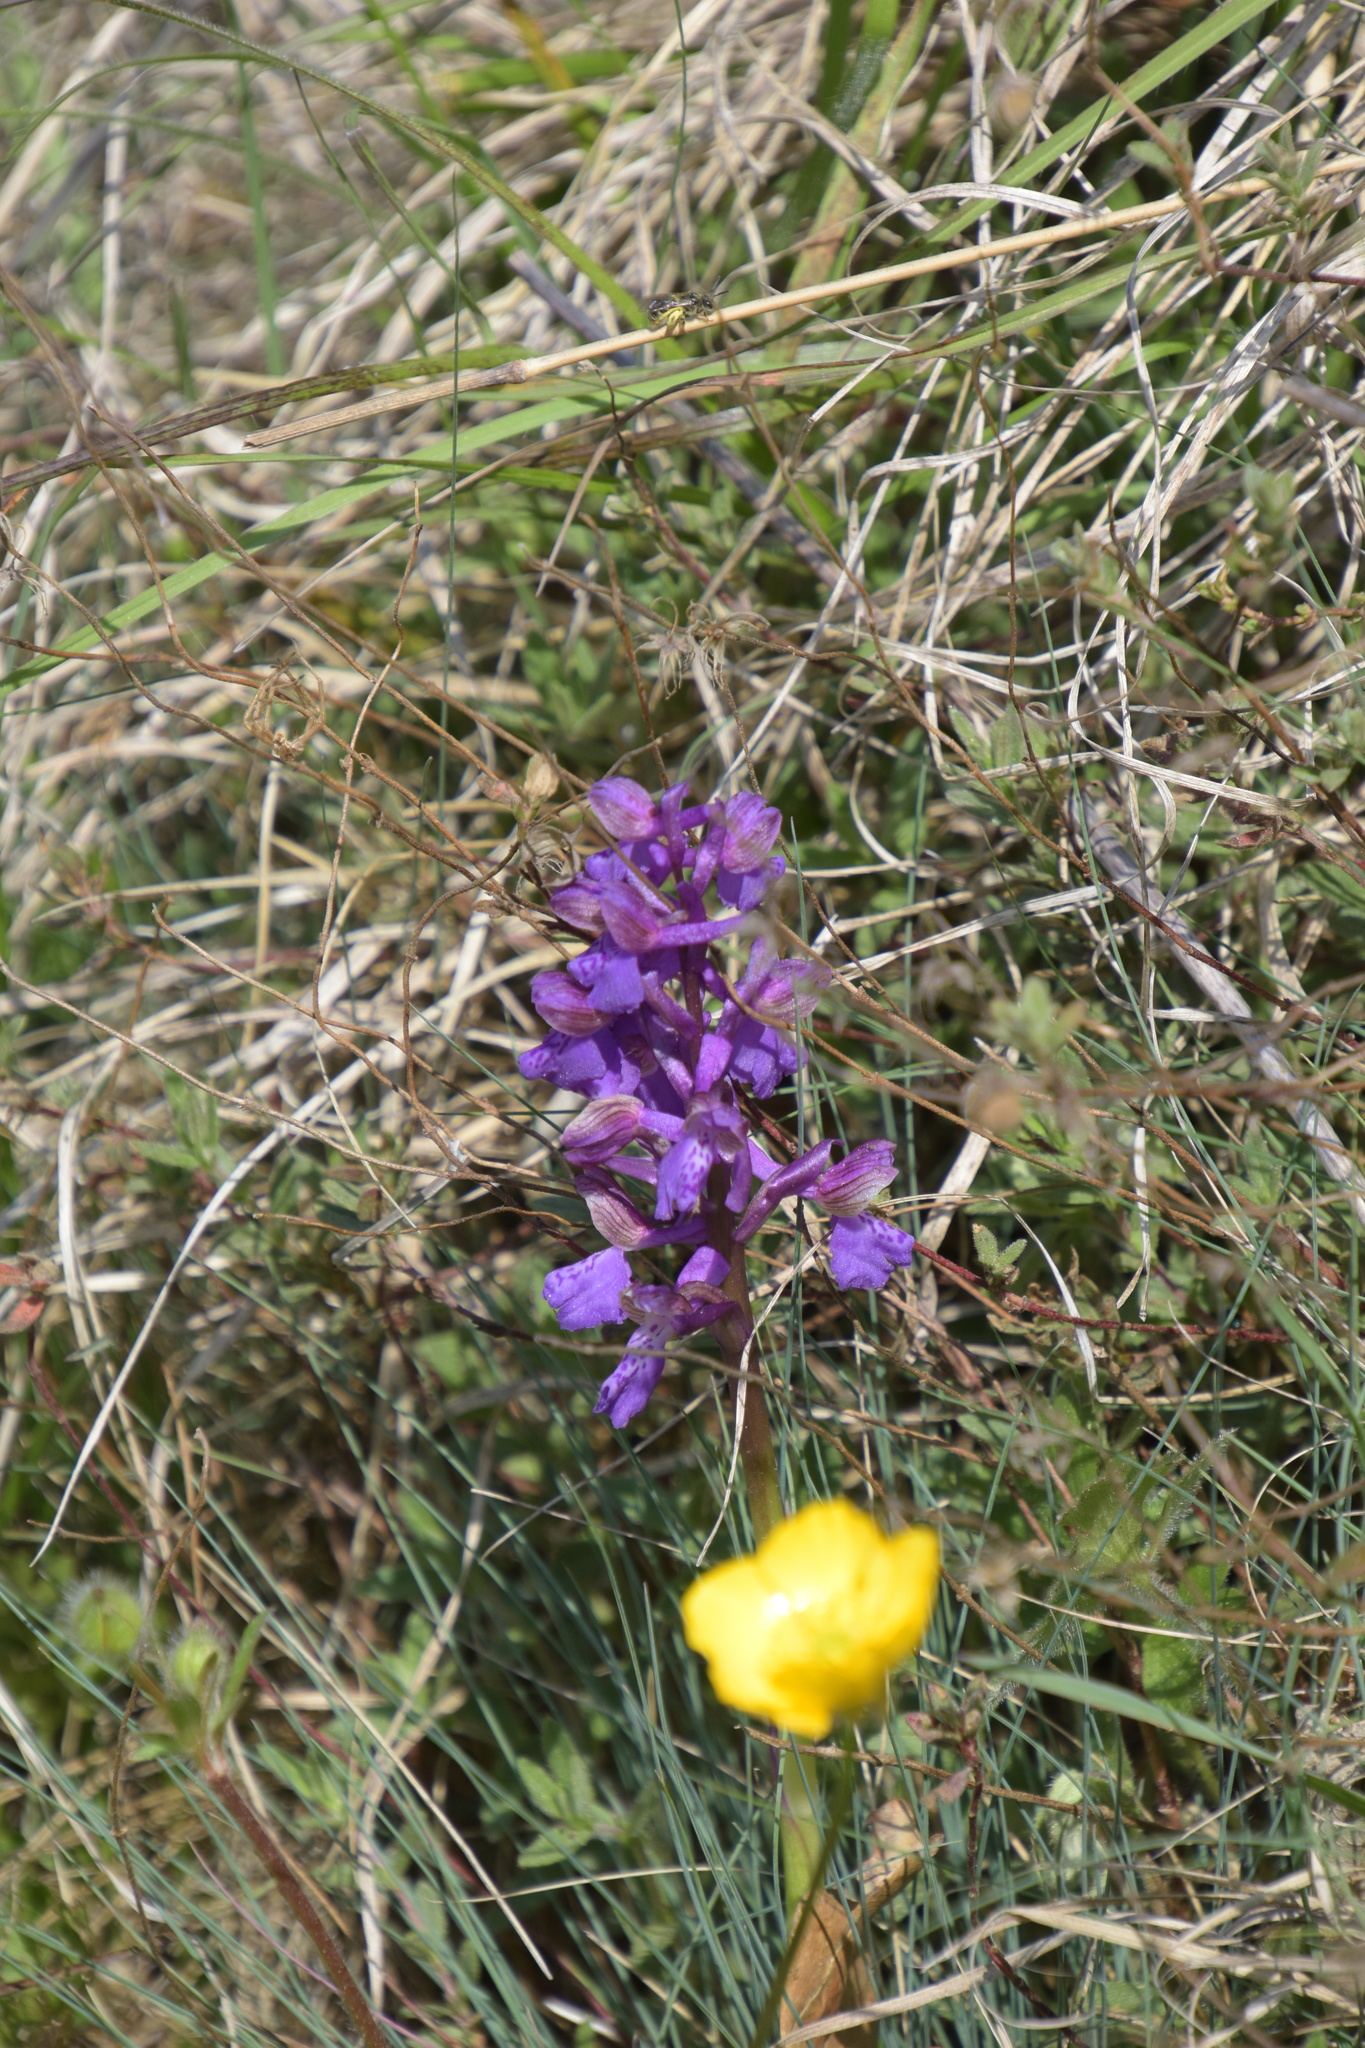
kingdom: Plantae
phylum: Tracheophyta
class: Liliopsida
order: Asparagales
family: Orchidaceae
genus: Anacamptis
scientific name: Anacamptis morio
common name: Green-winged orchid
